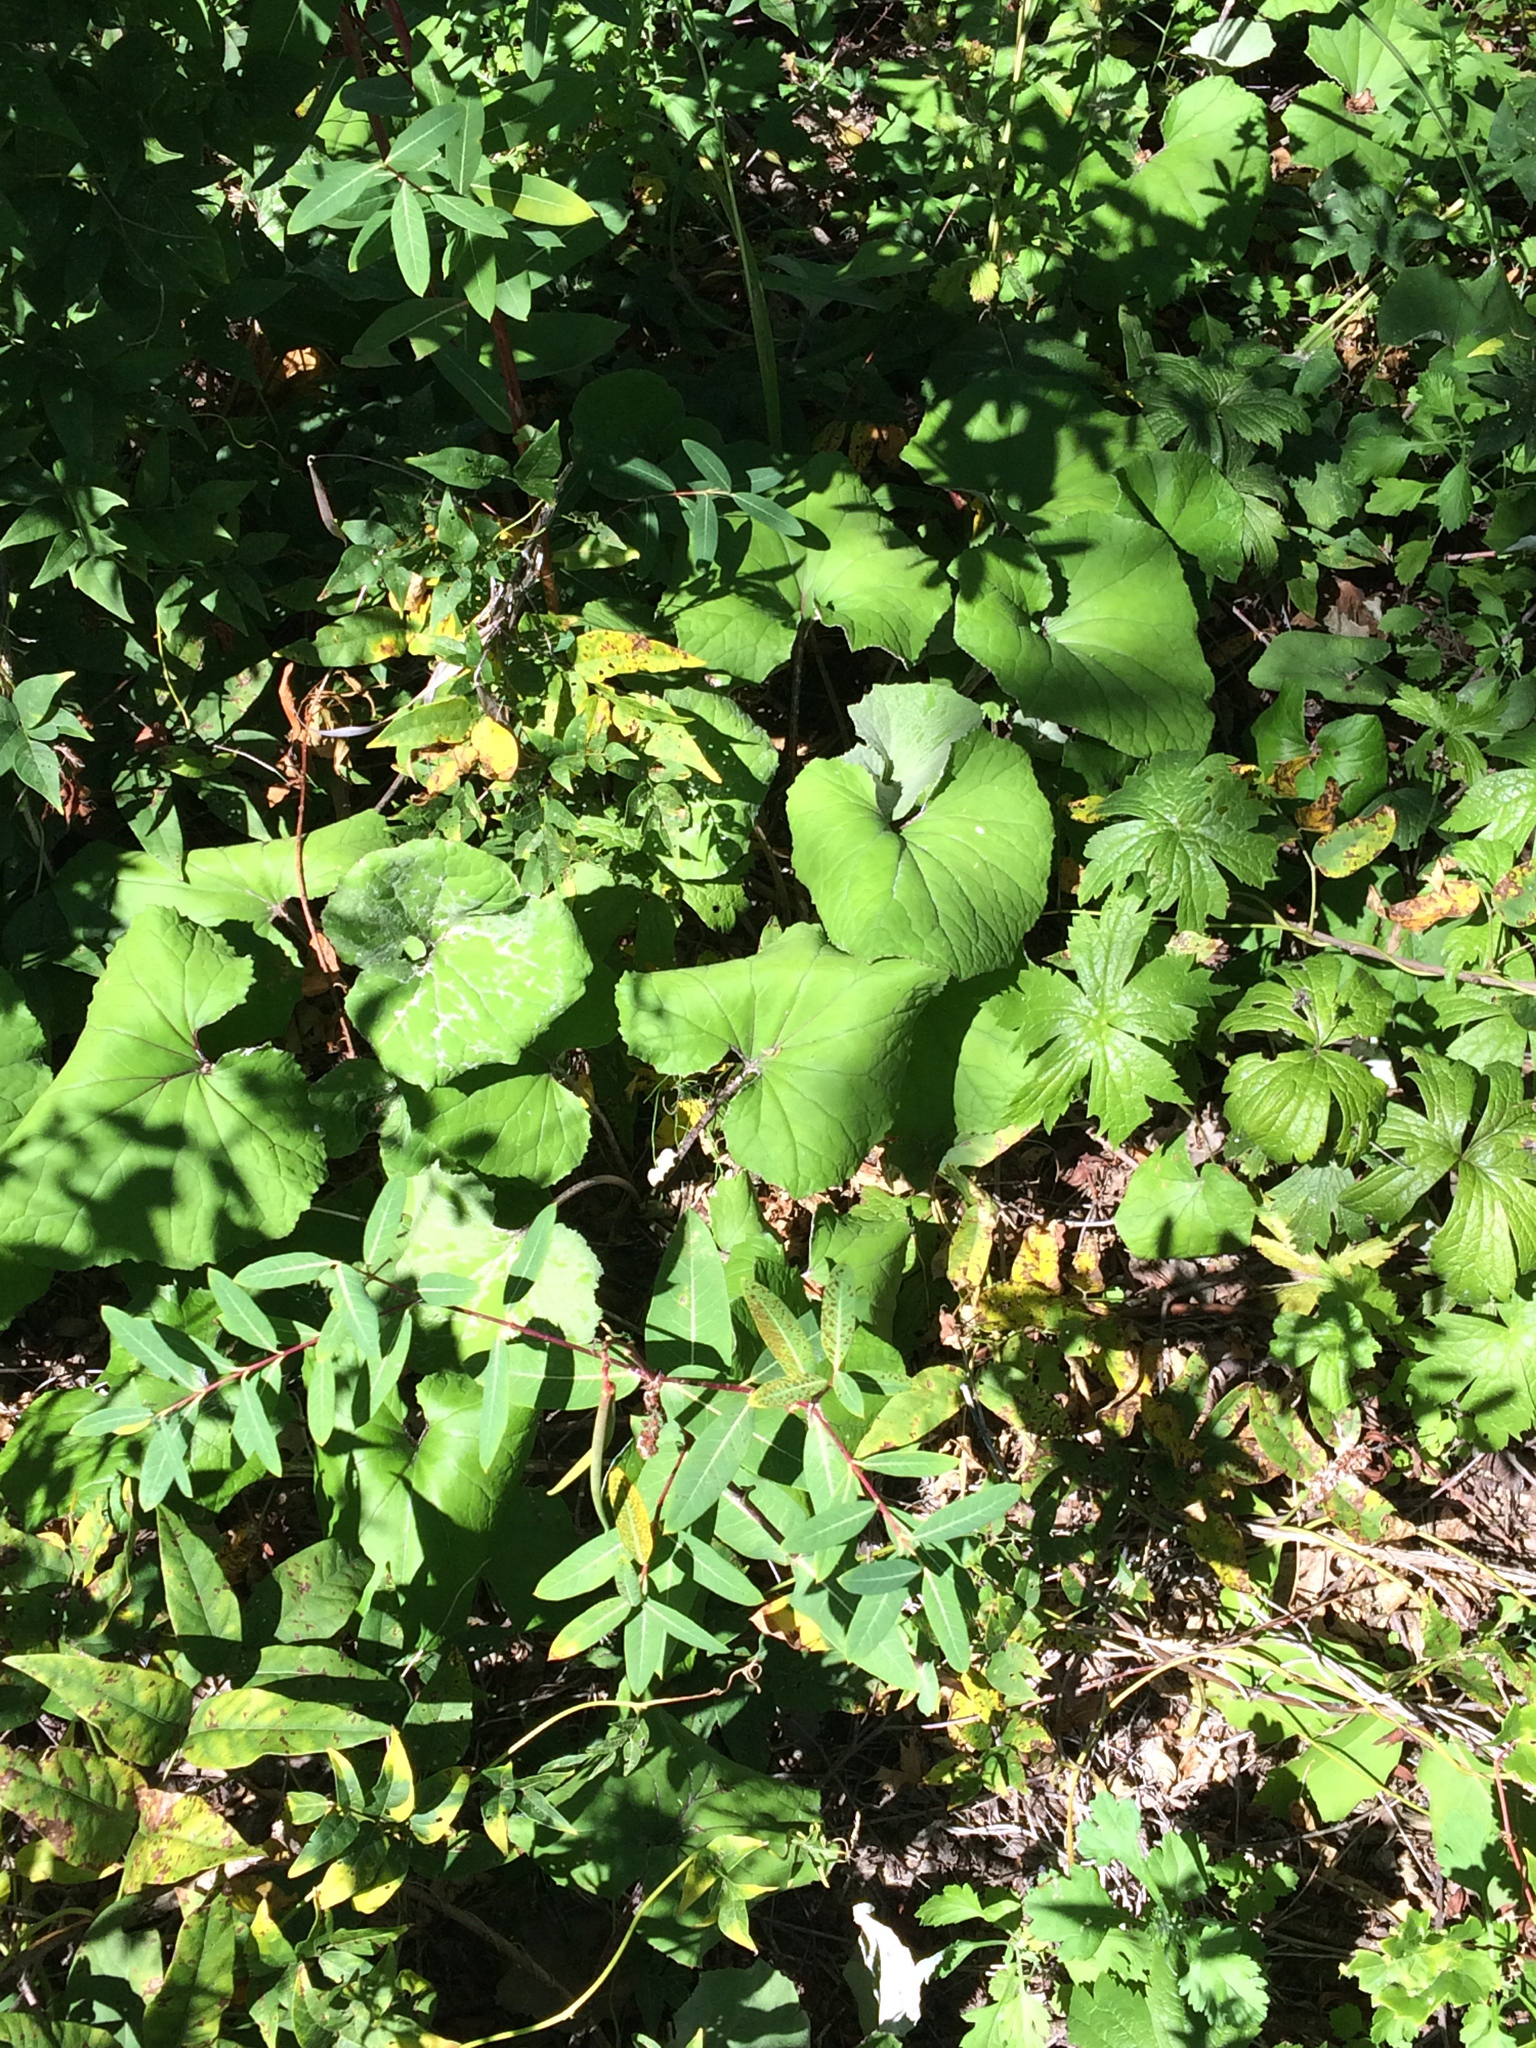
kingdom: Plantae
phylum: Tracheophyta
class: Magnoliopsida
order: Asterales
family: Asteraceae
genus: Tussilago
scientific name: Tussilago farfara
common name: Coltsfoot
